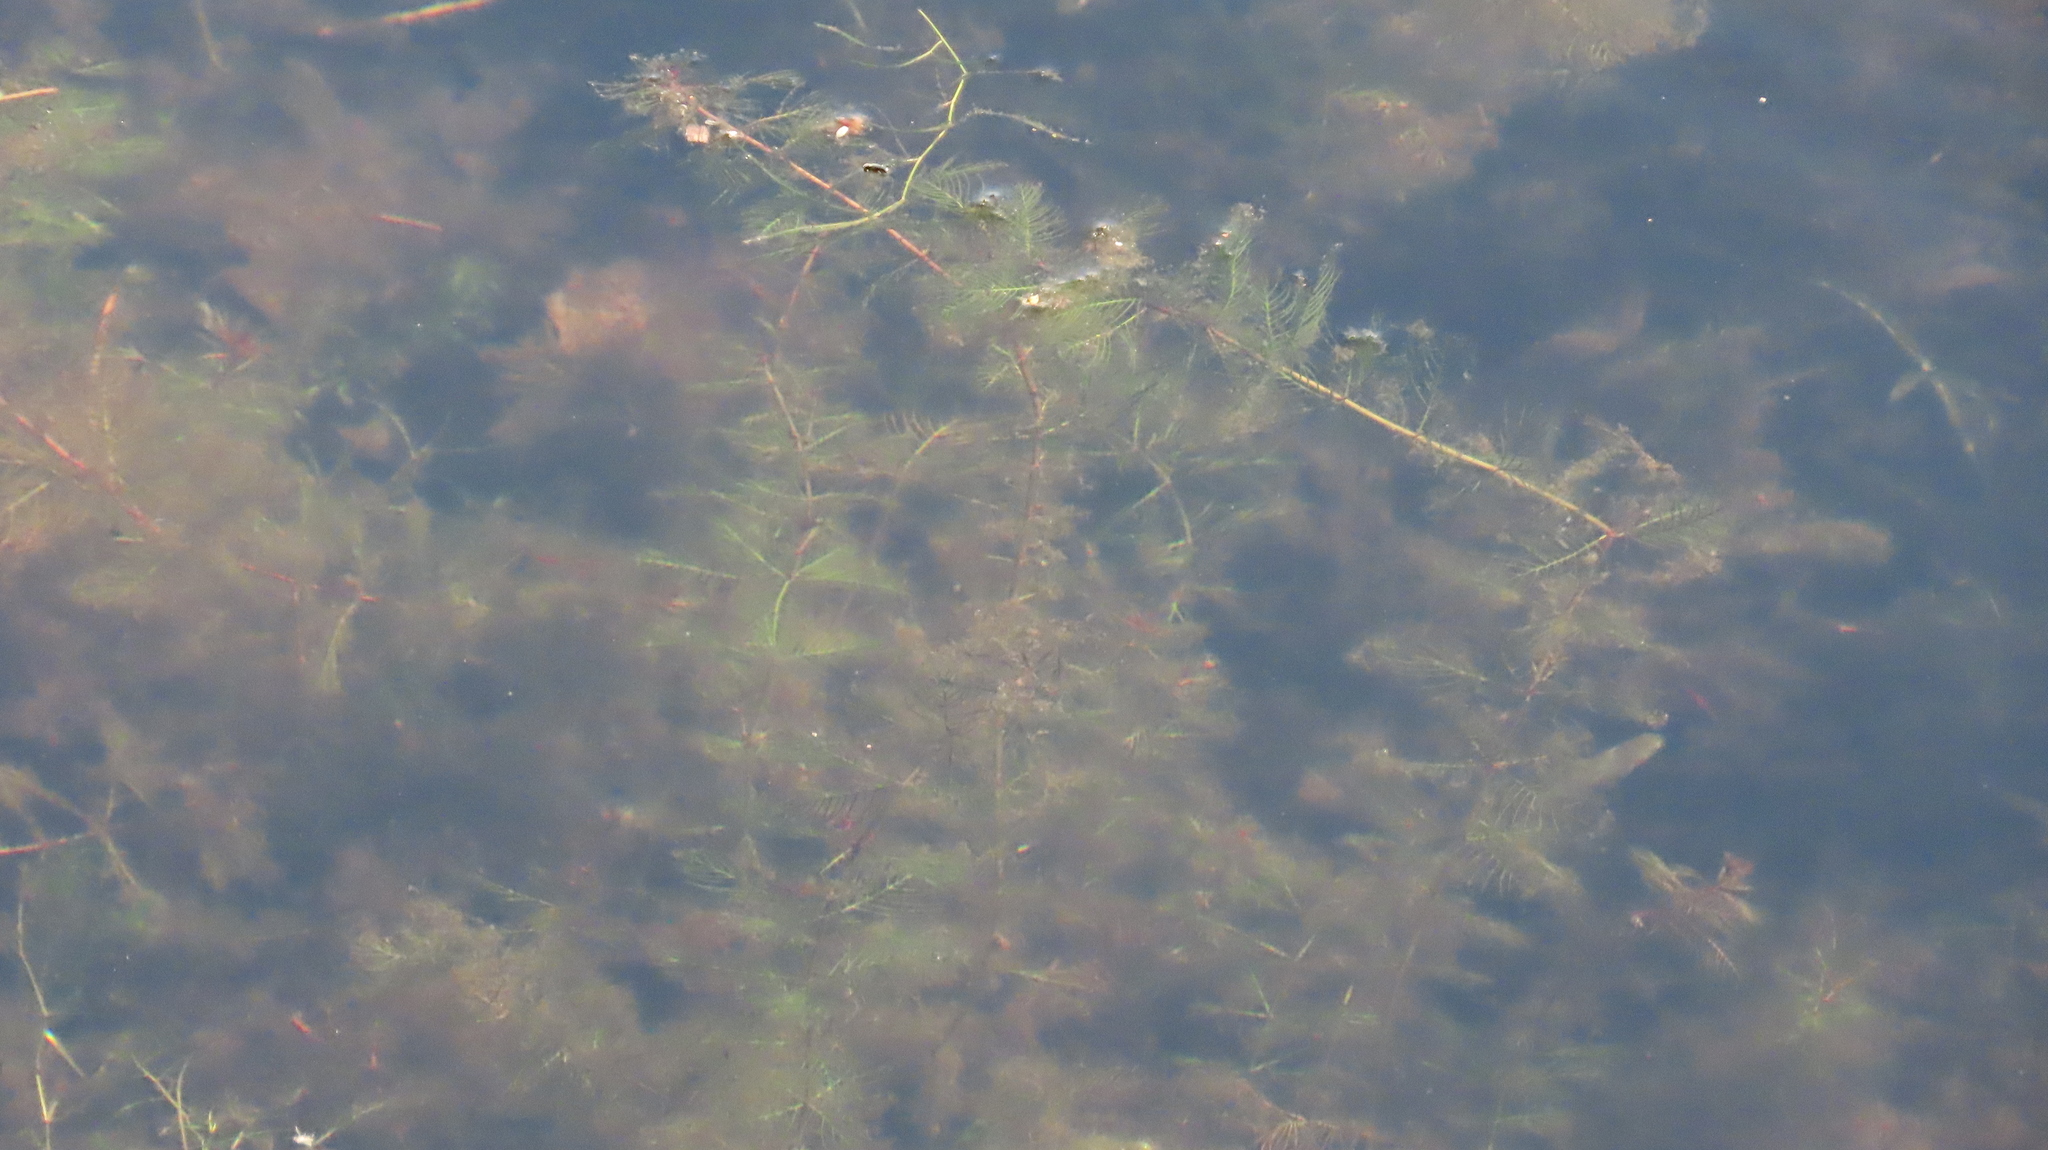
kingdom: Plantae
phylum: Tracheophyta
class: Magnoliopsida
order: Saxifragales
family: Haloragaceae
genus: Myriophyllum
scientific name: Myriophyllum spicatum
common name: Spiked water-milfoil
